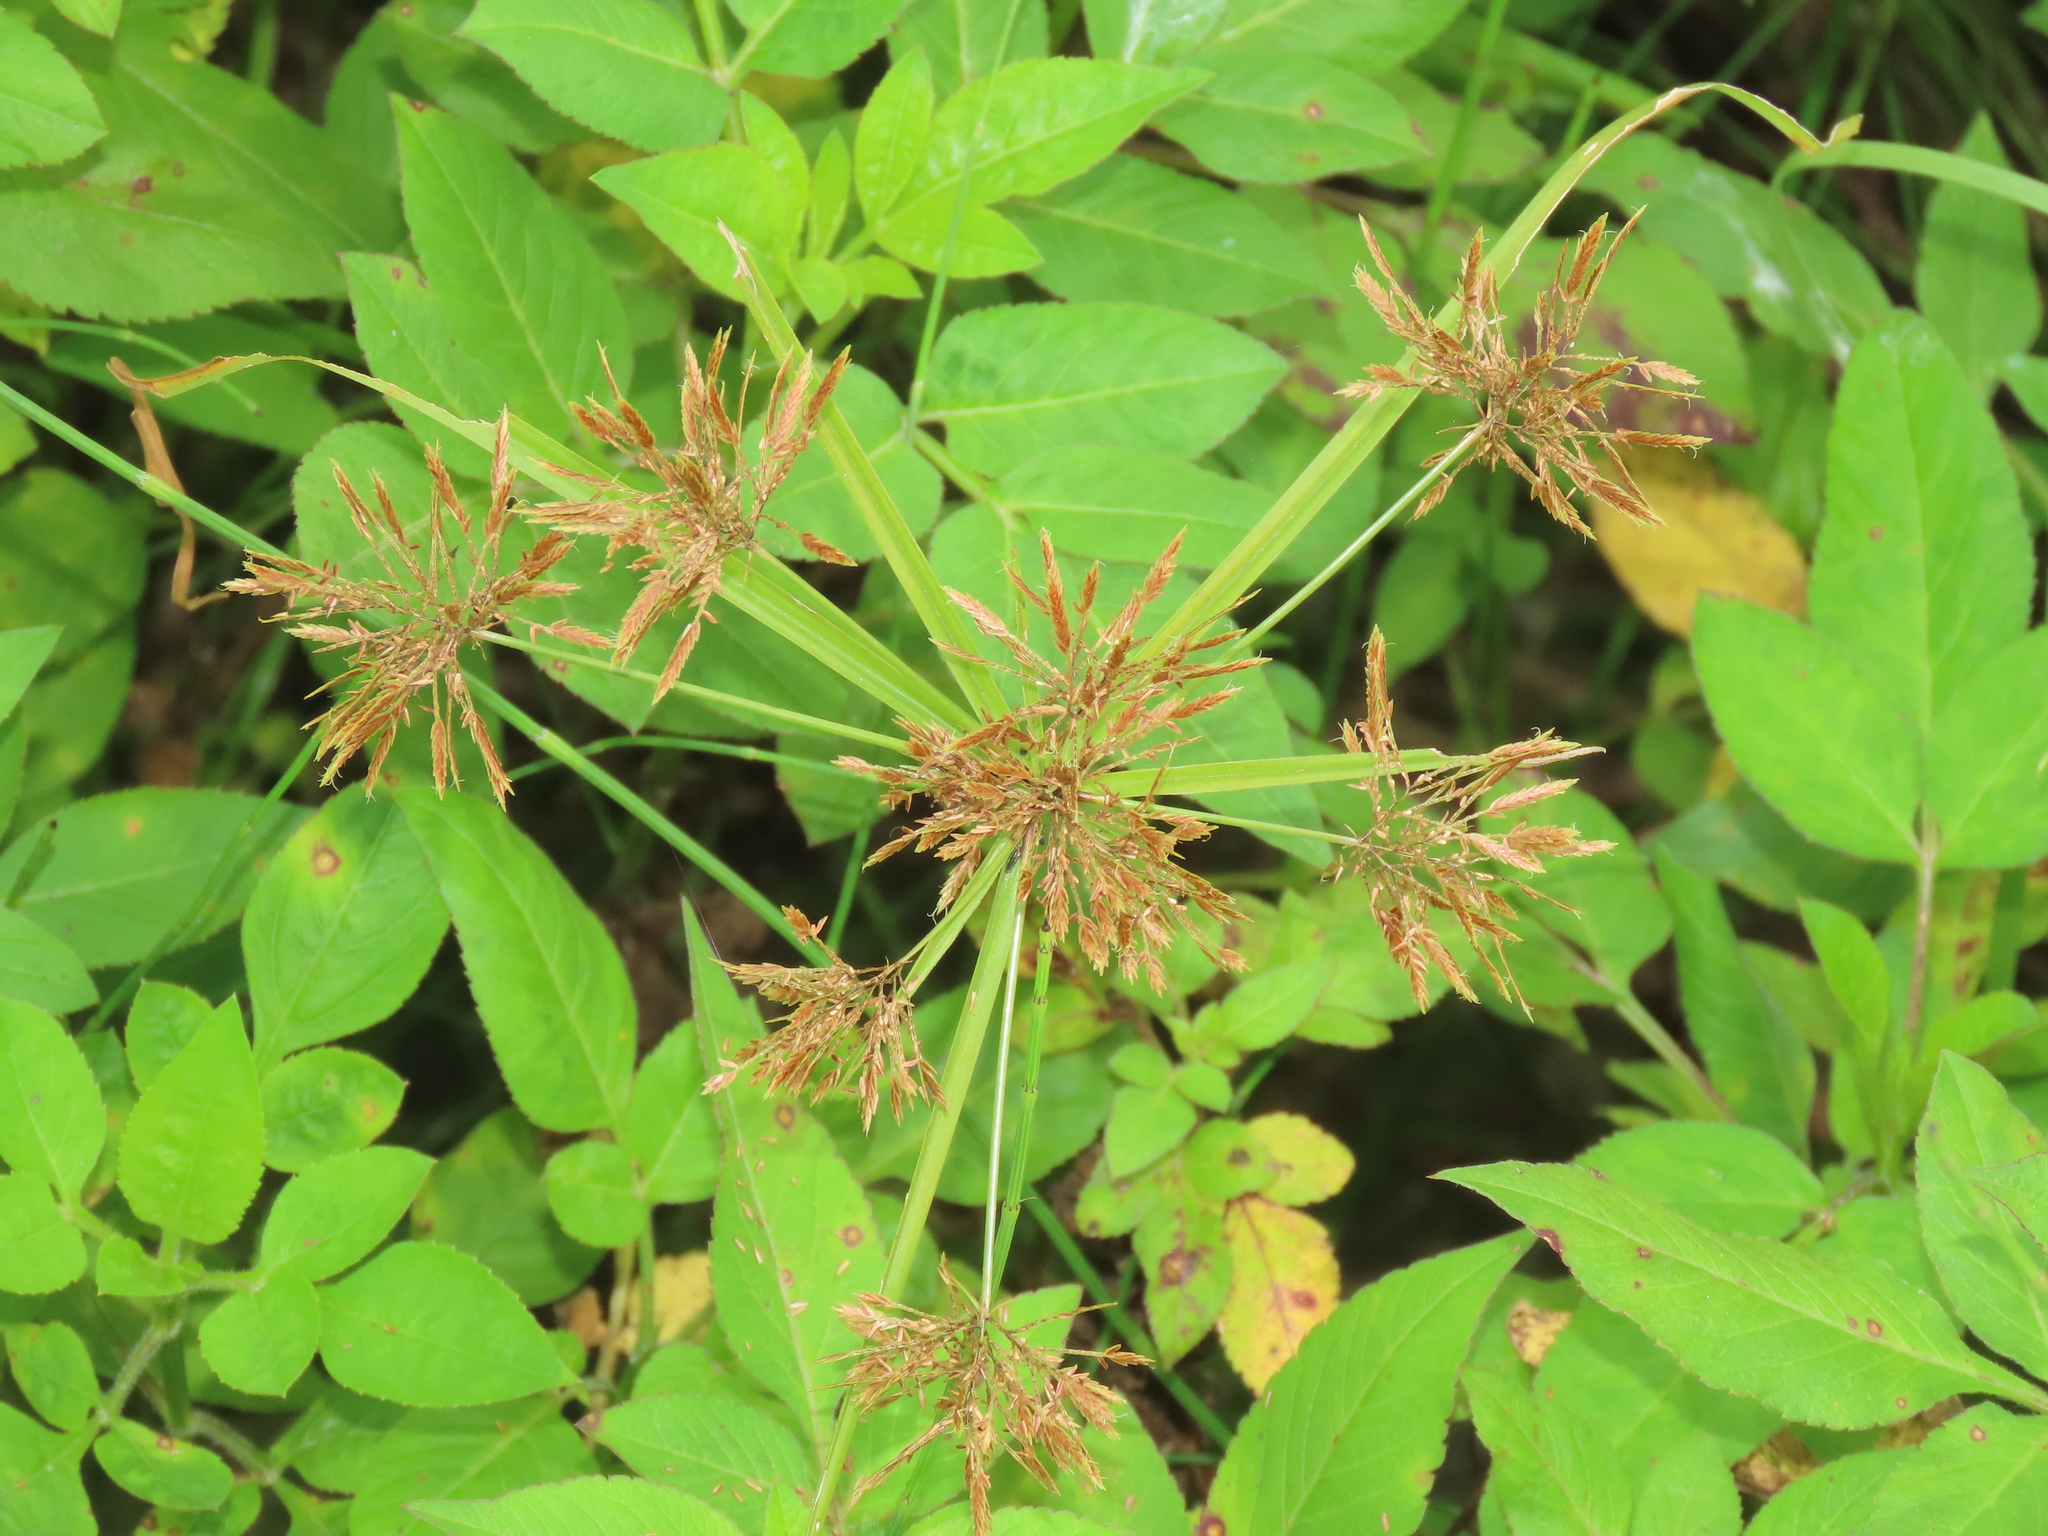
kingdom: Plantae
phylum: Tracheophyta
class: Liliopsida
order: Poales
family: Cyperaceae
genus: Cyperus
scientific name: Cyperus polystachyos
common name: Bunchy flat sedge
